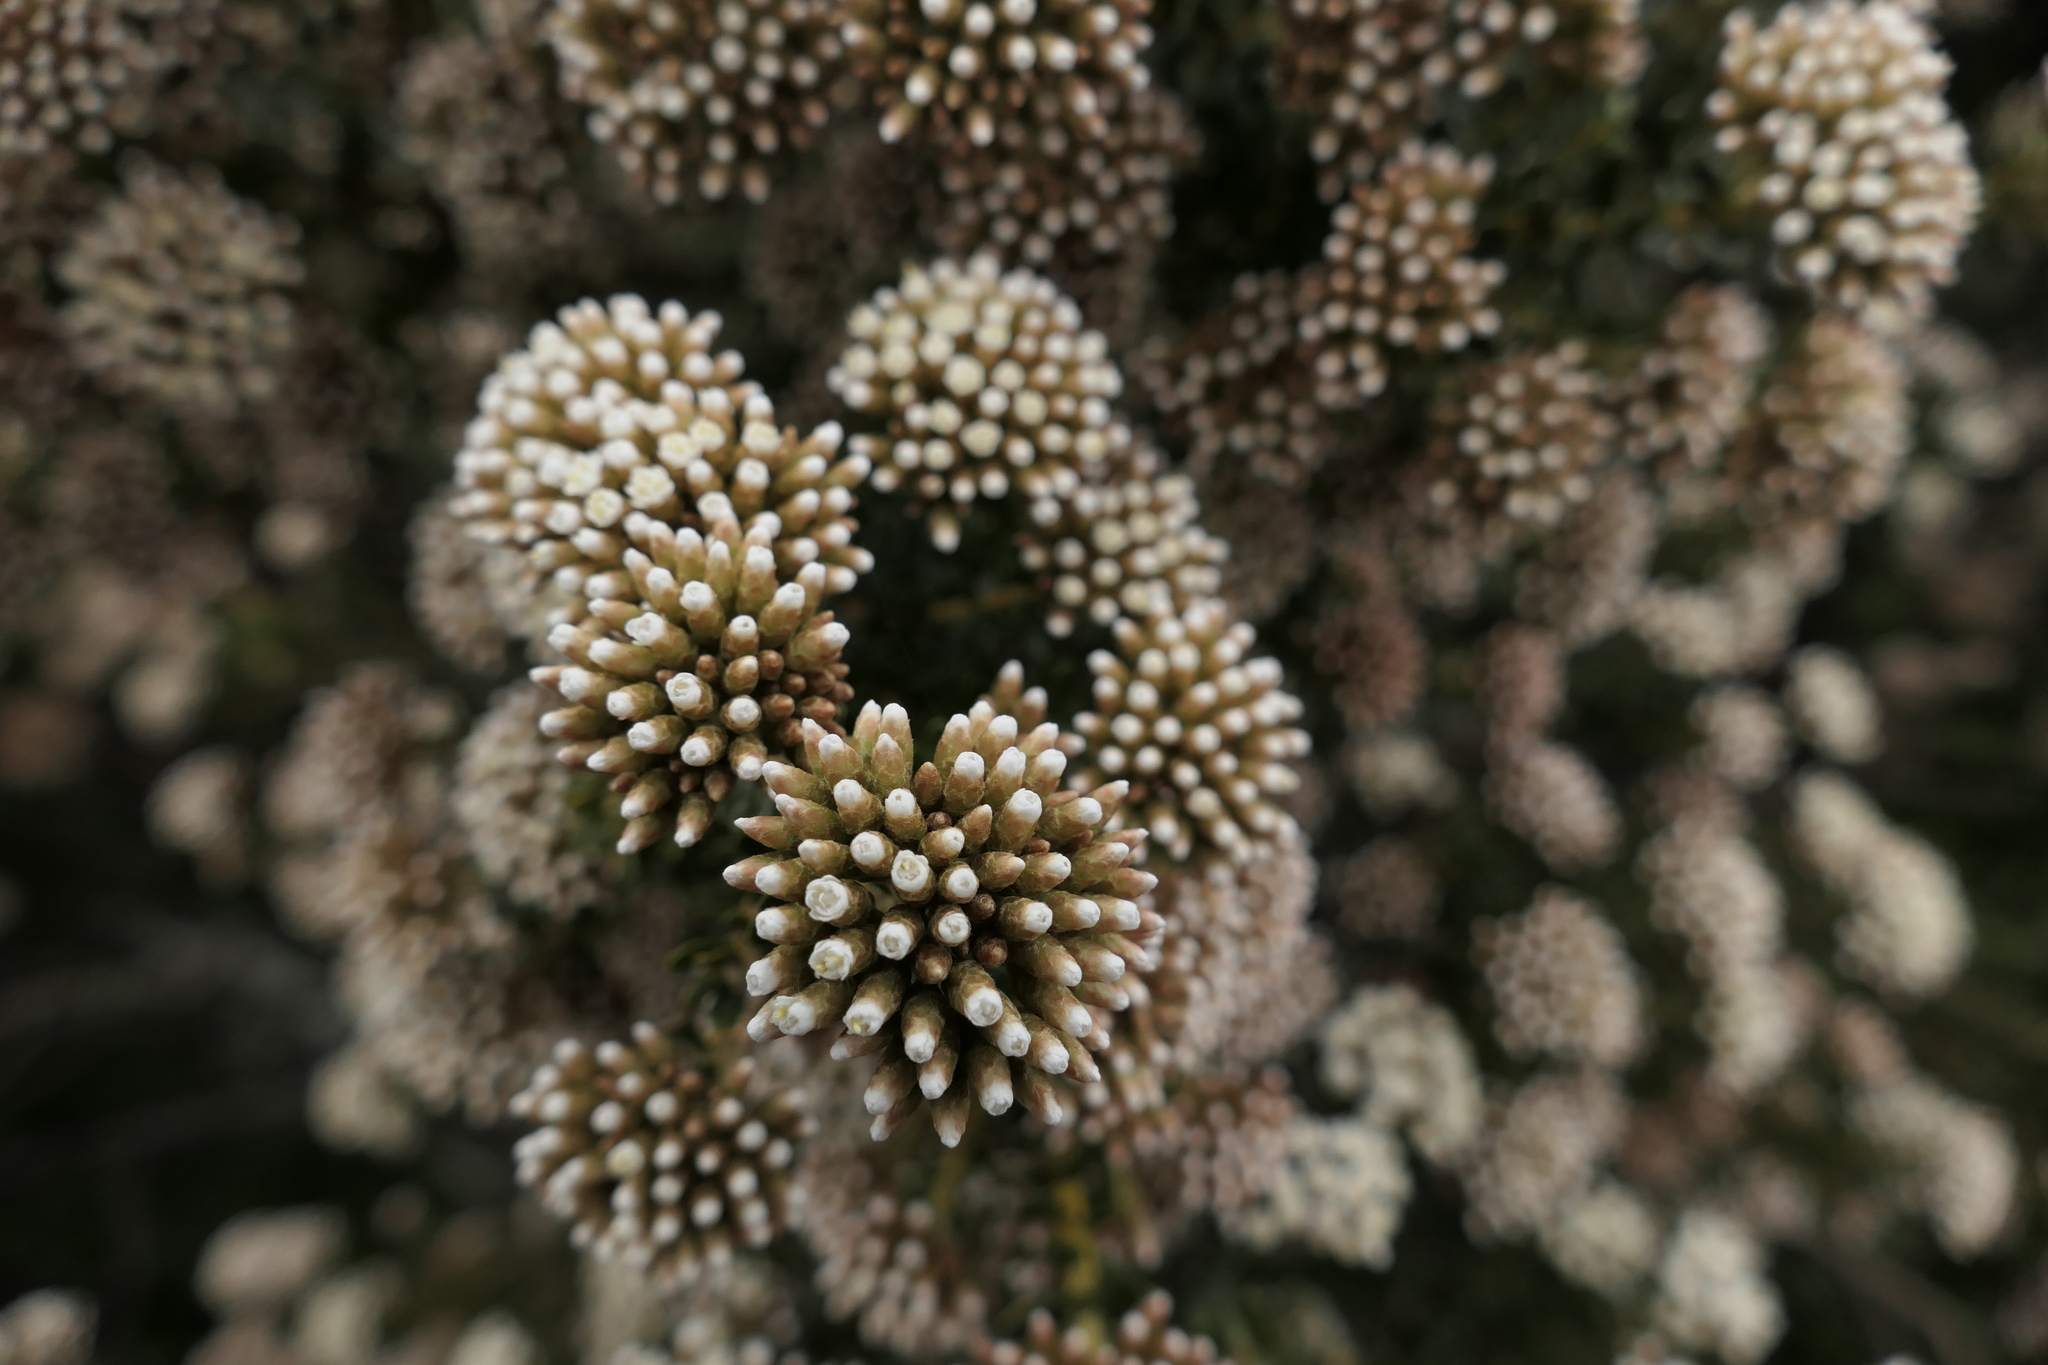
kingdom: Plantae
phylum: Tracheophyta
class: Magnoliopsida
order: Asterales
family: Asteraceae
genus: Ozothamnus
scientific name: Ozothamnus leptophyllus
